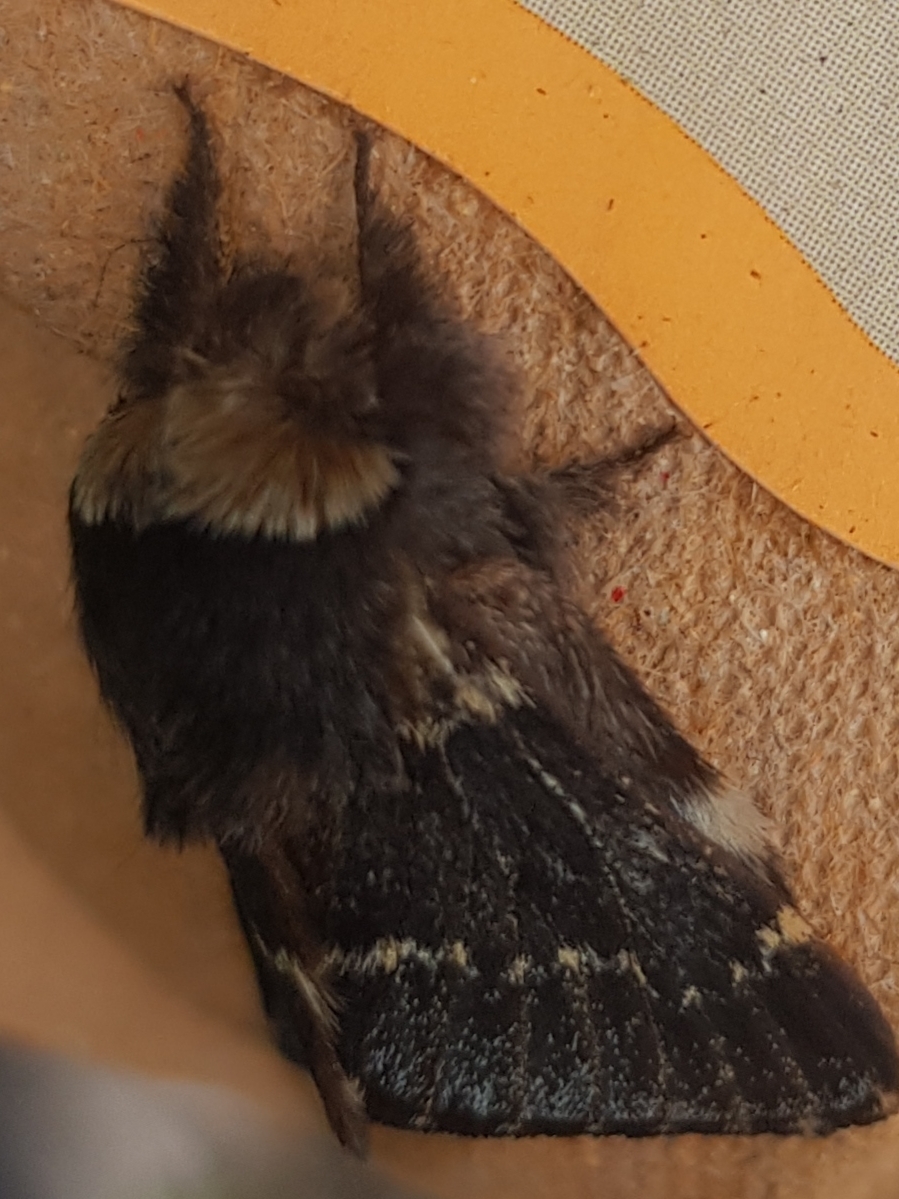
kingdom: Animalia
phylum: Arthropoda
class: Insecta
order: Lepidoptera
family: Lasiocampidae
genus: Poecilocampa
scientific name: Poecilocampa populi
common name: December moth
